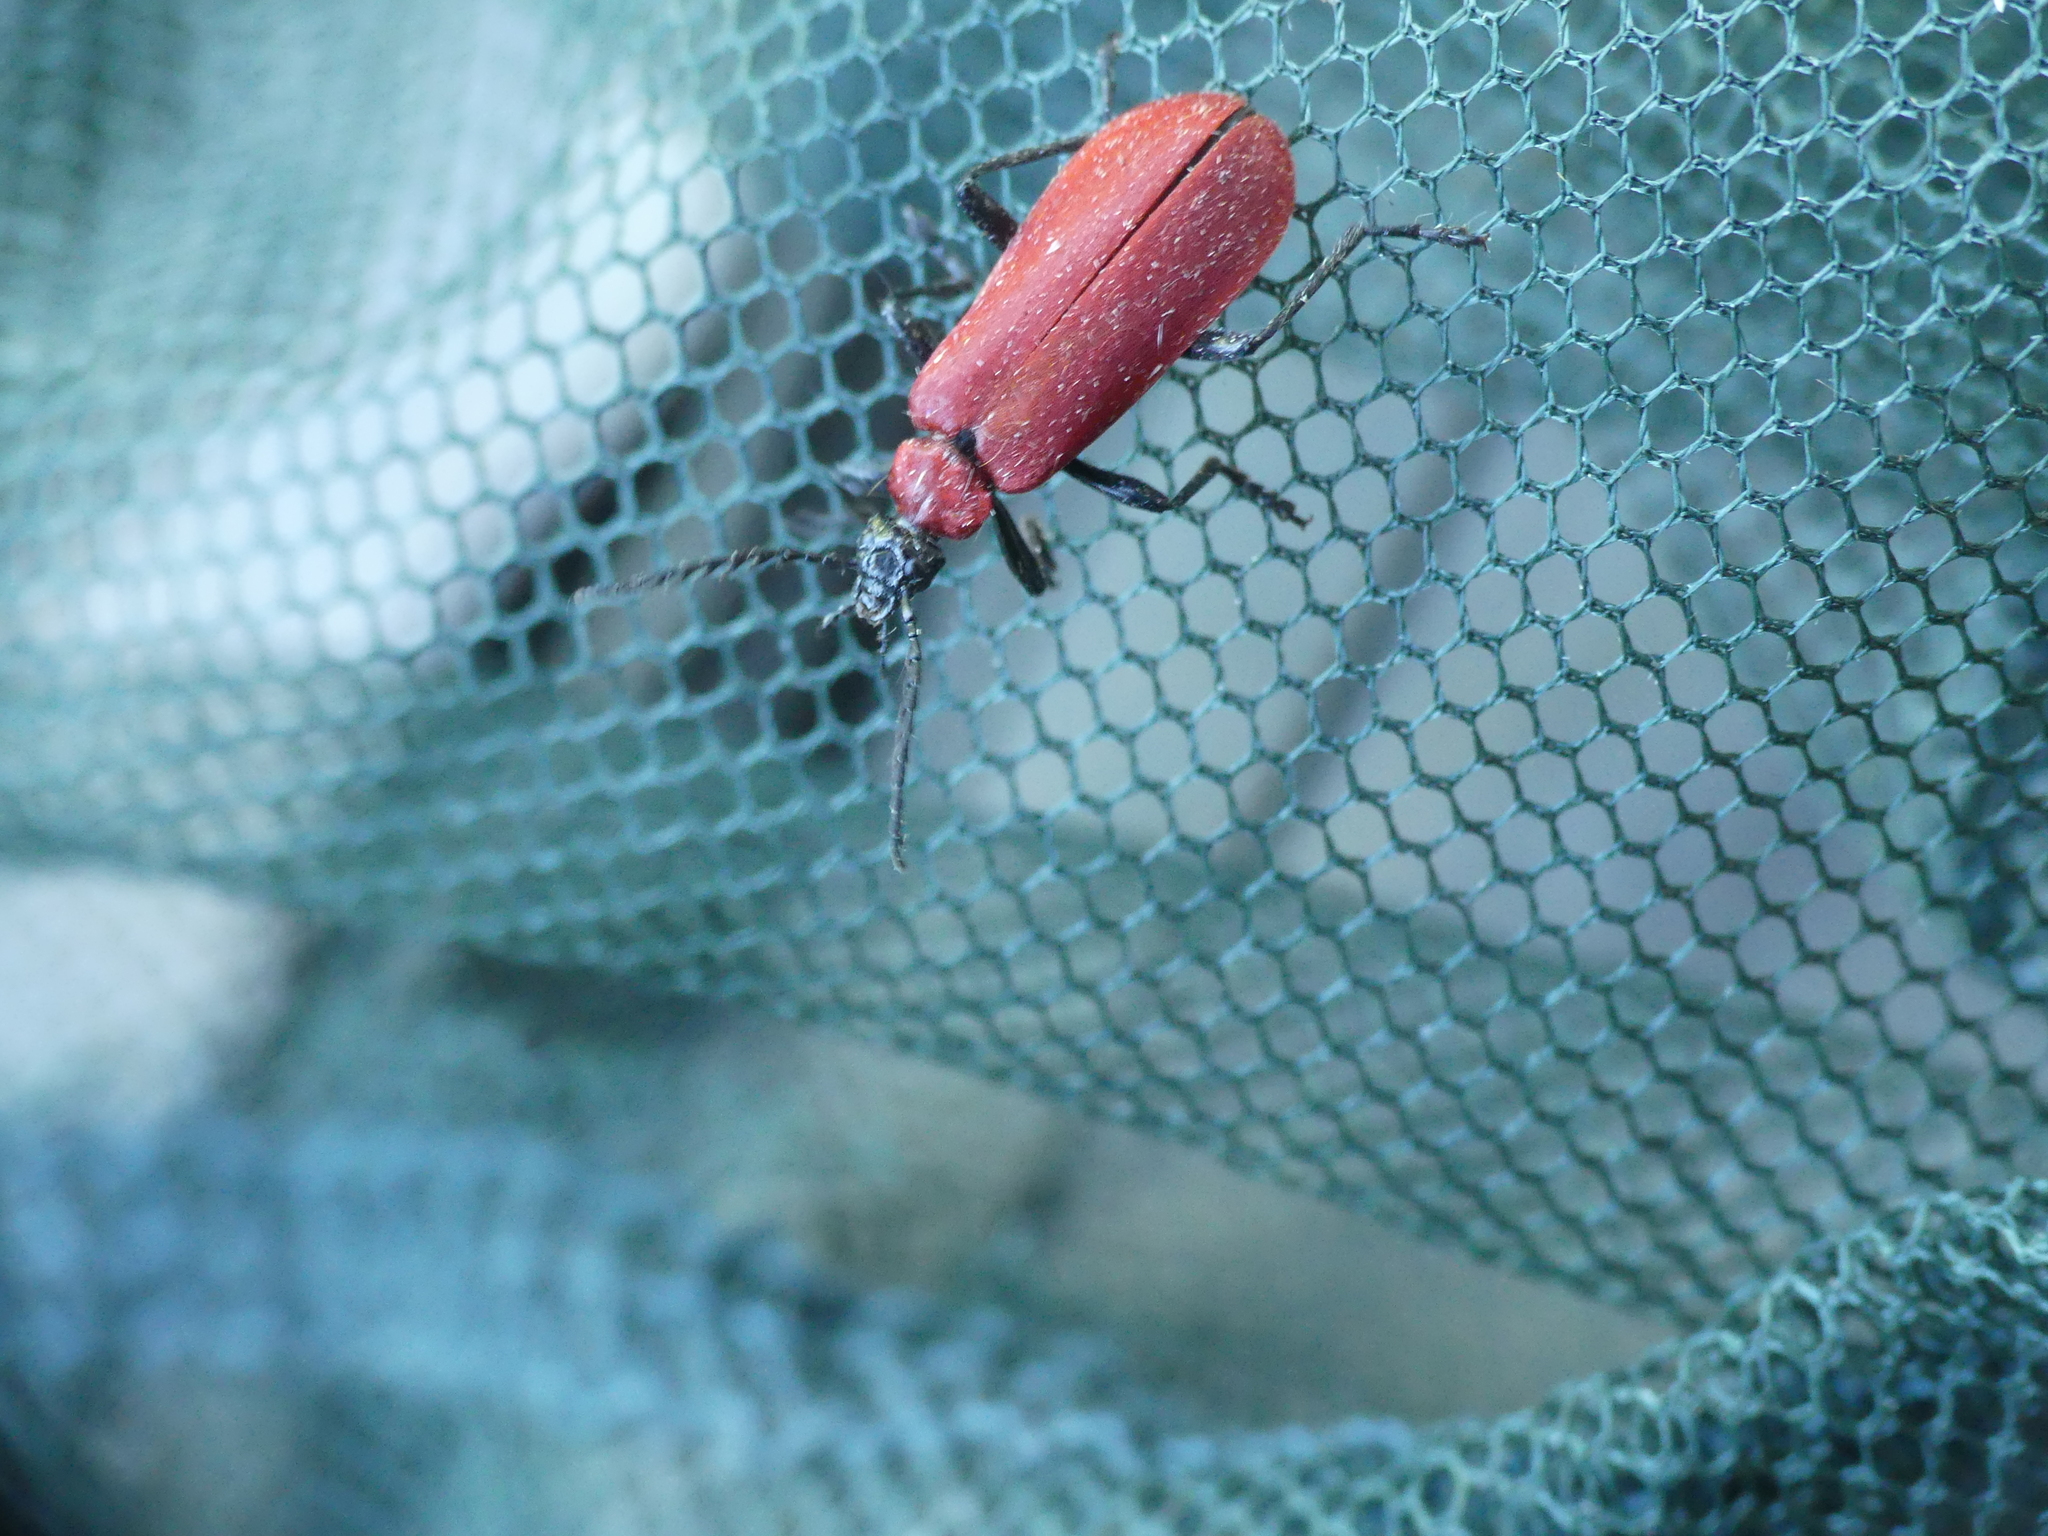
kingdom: Animalia
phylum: Arthropoda
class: Insecta
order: Coleoptera
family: Pyrochroidae
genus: Pyrochroa
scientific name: Pyrochroa coccinea
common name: Black-headed cardinal beetle
